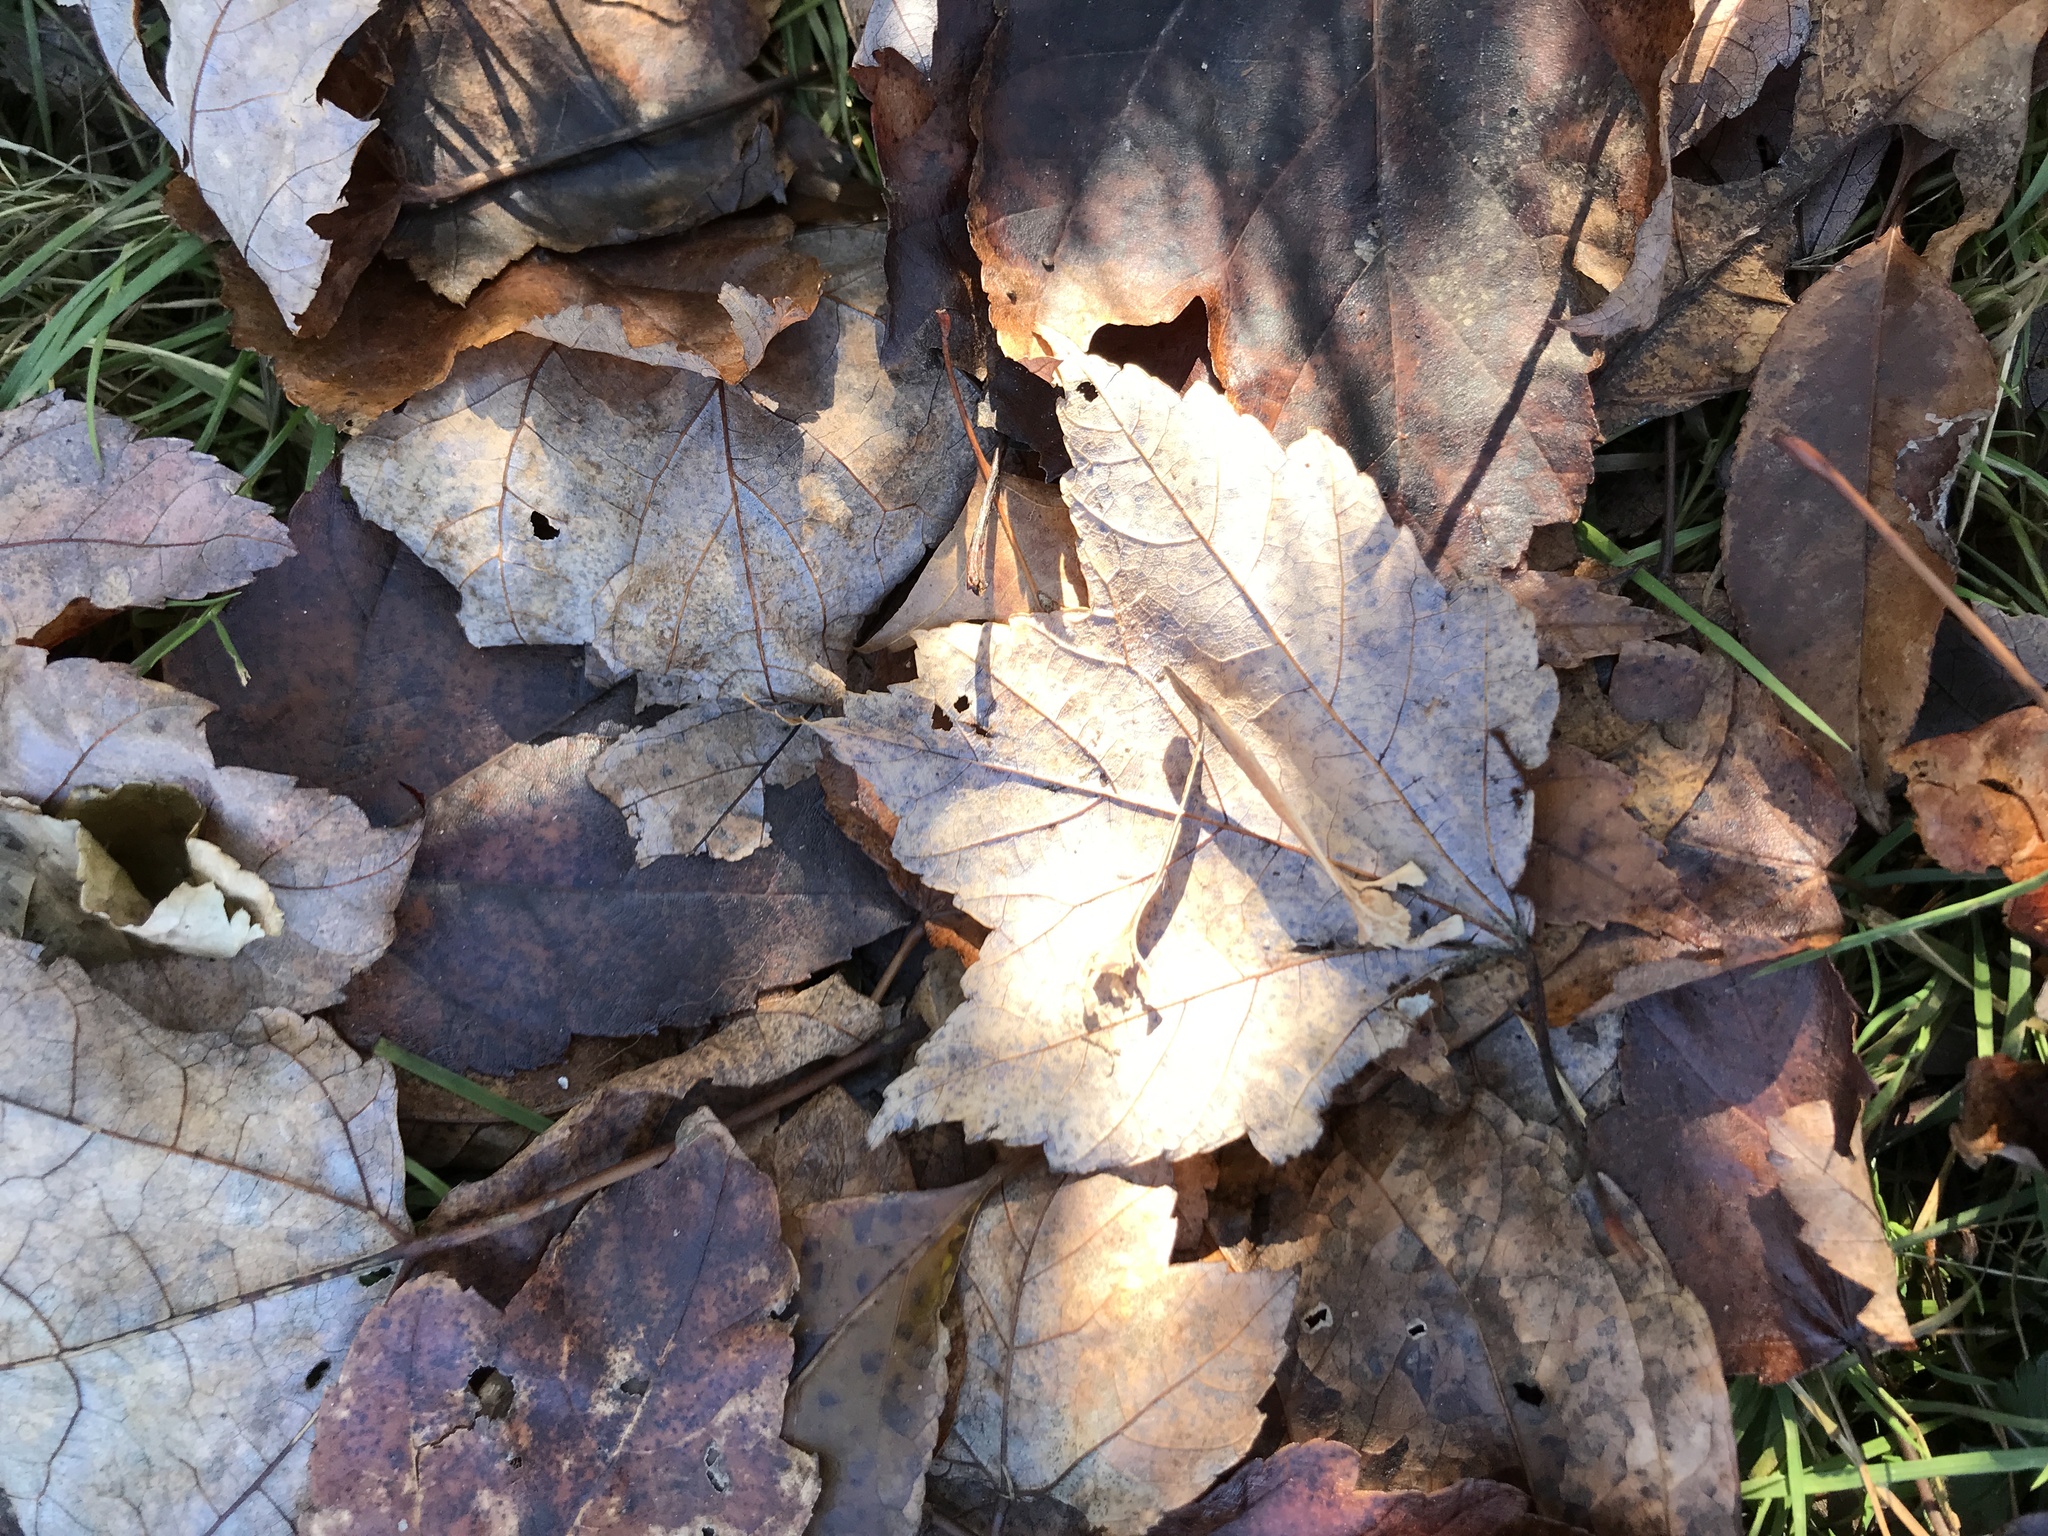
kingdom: Plantae
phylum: Tracheophyta
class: Magnoliopsida
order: Sapindales
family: Sapindaceae
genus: Acer
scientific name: Acer rubrum
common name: Red maple
